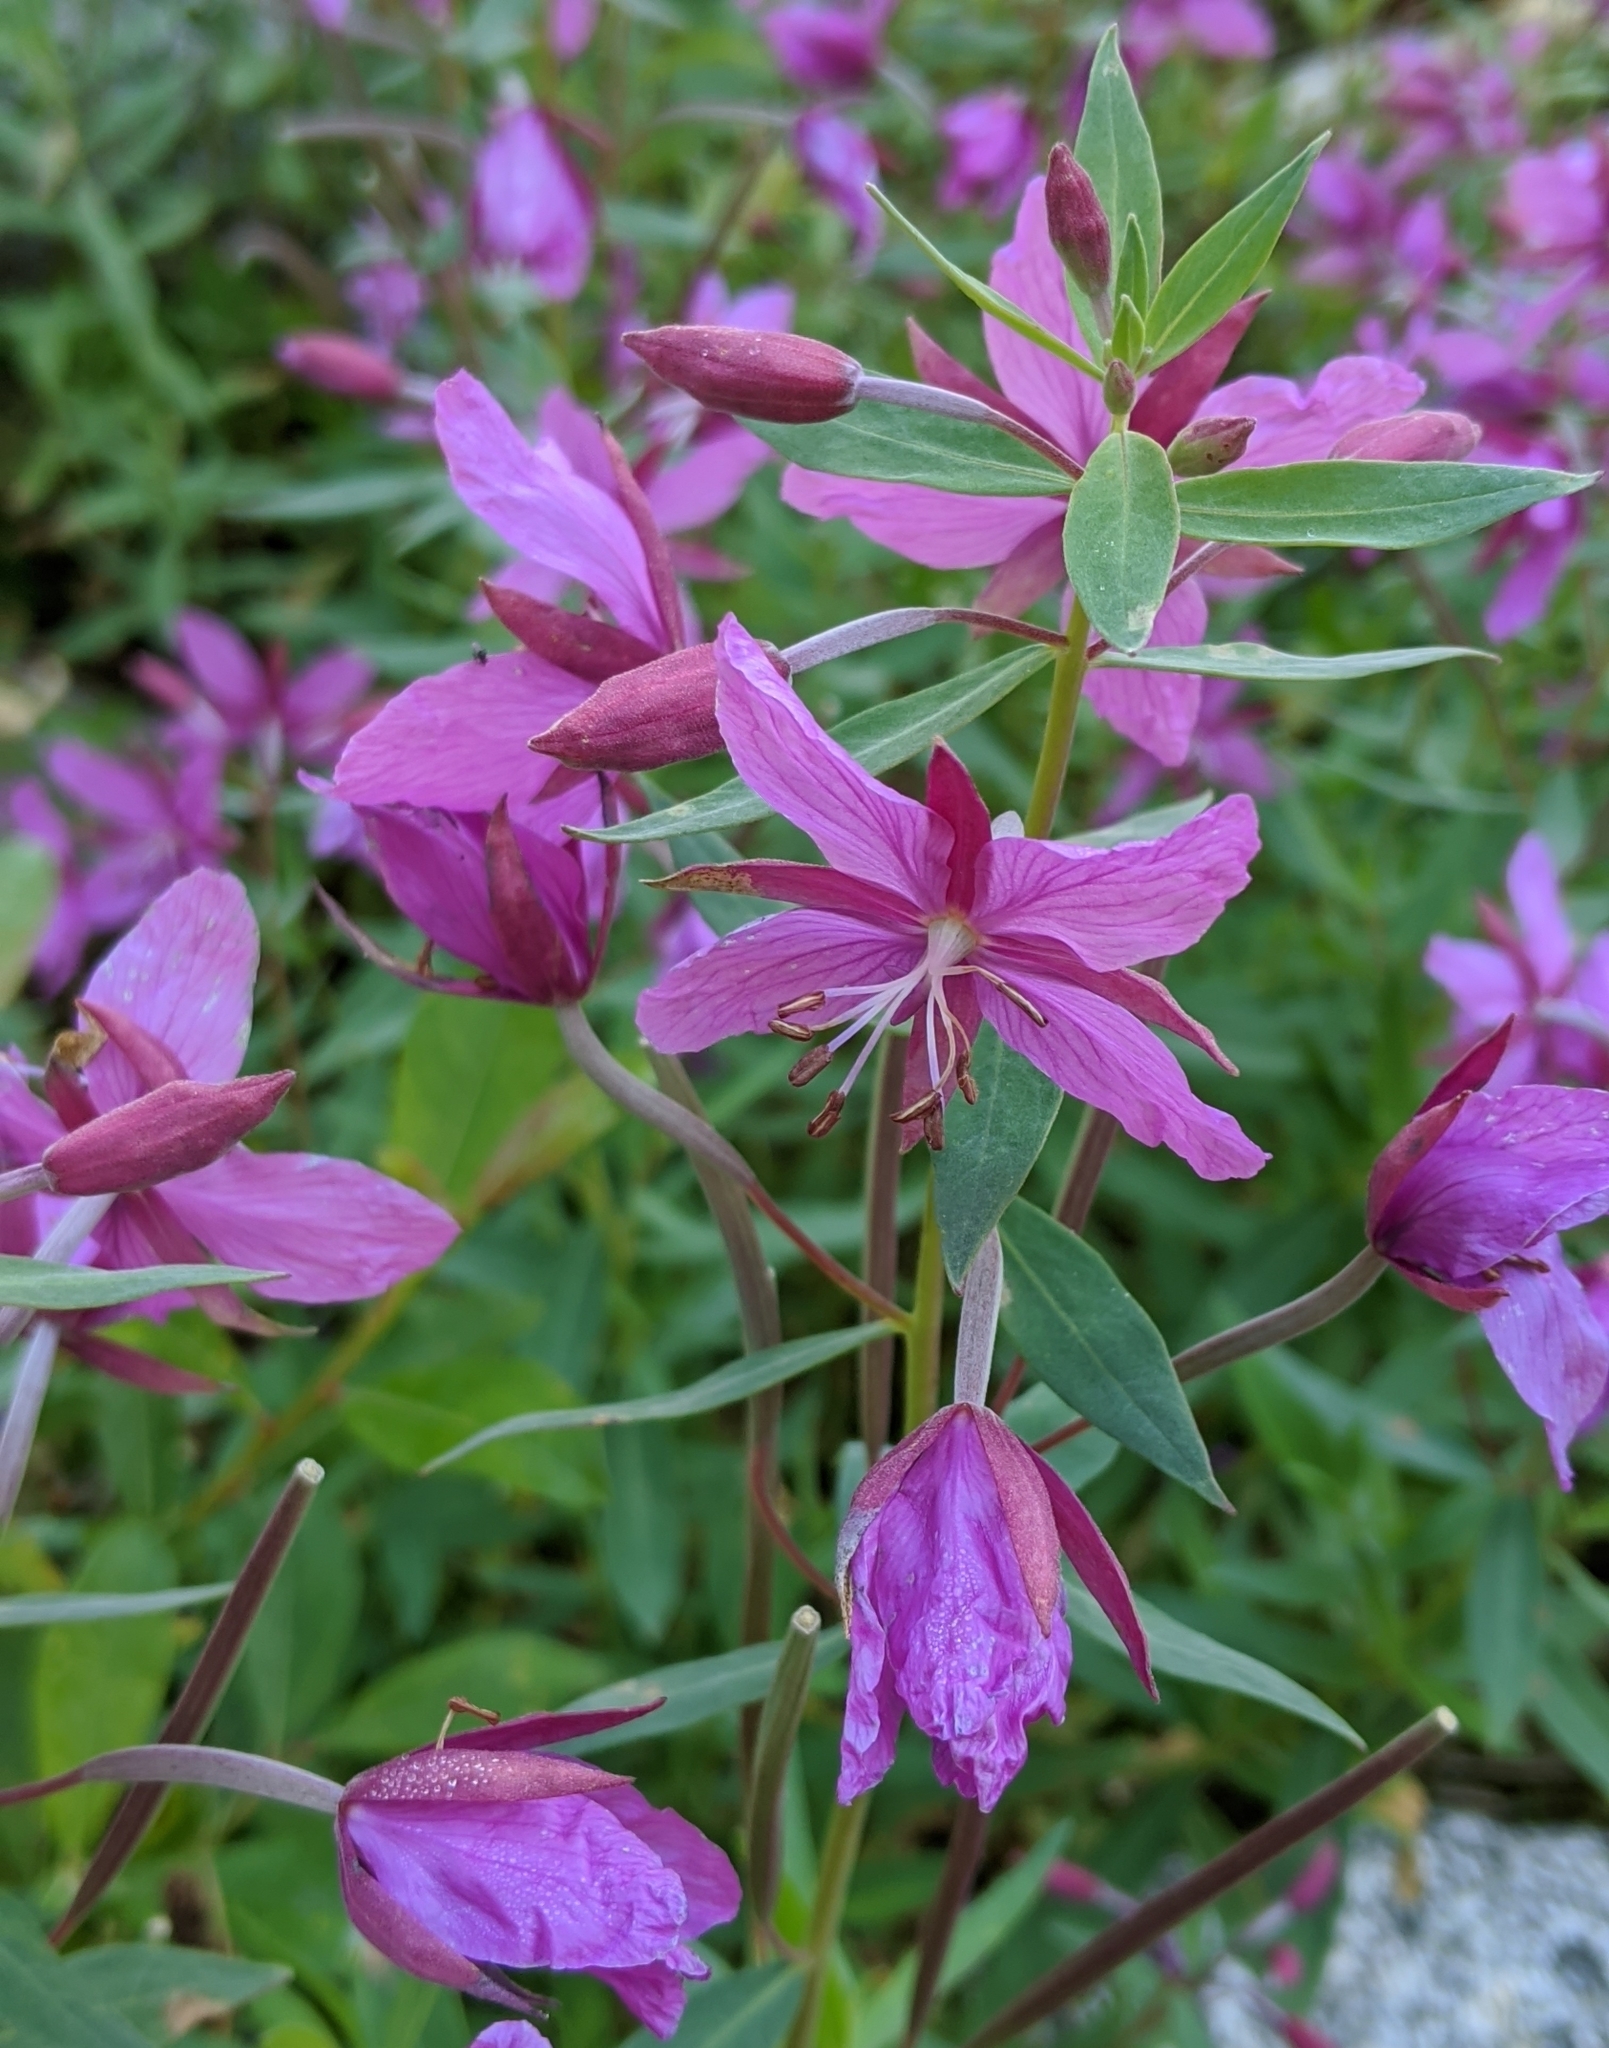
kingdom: Plantae
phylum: Tracheophyta
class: Magnoliopsida
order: Myrtales
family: Onagraceae
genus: Chamaenerion
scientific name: Chamaenerion latifolium
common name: Dwarf fireweed
